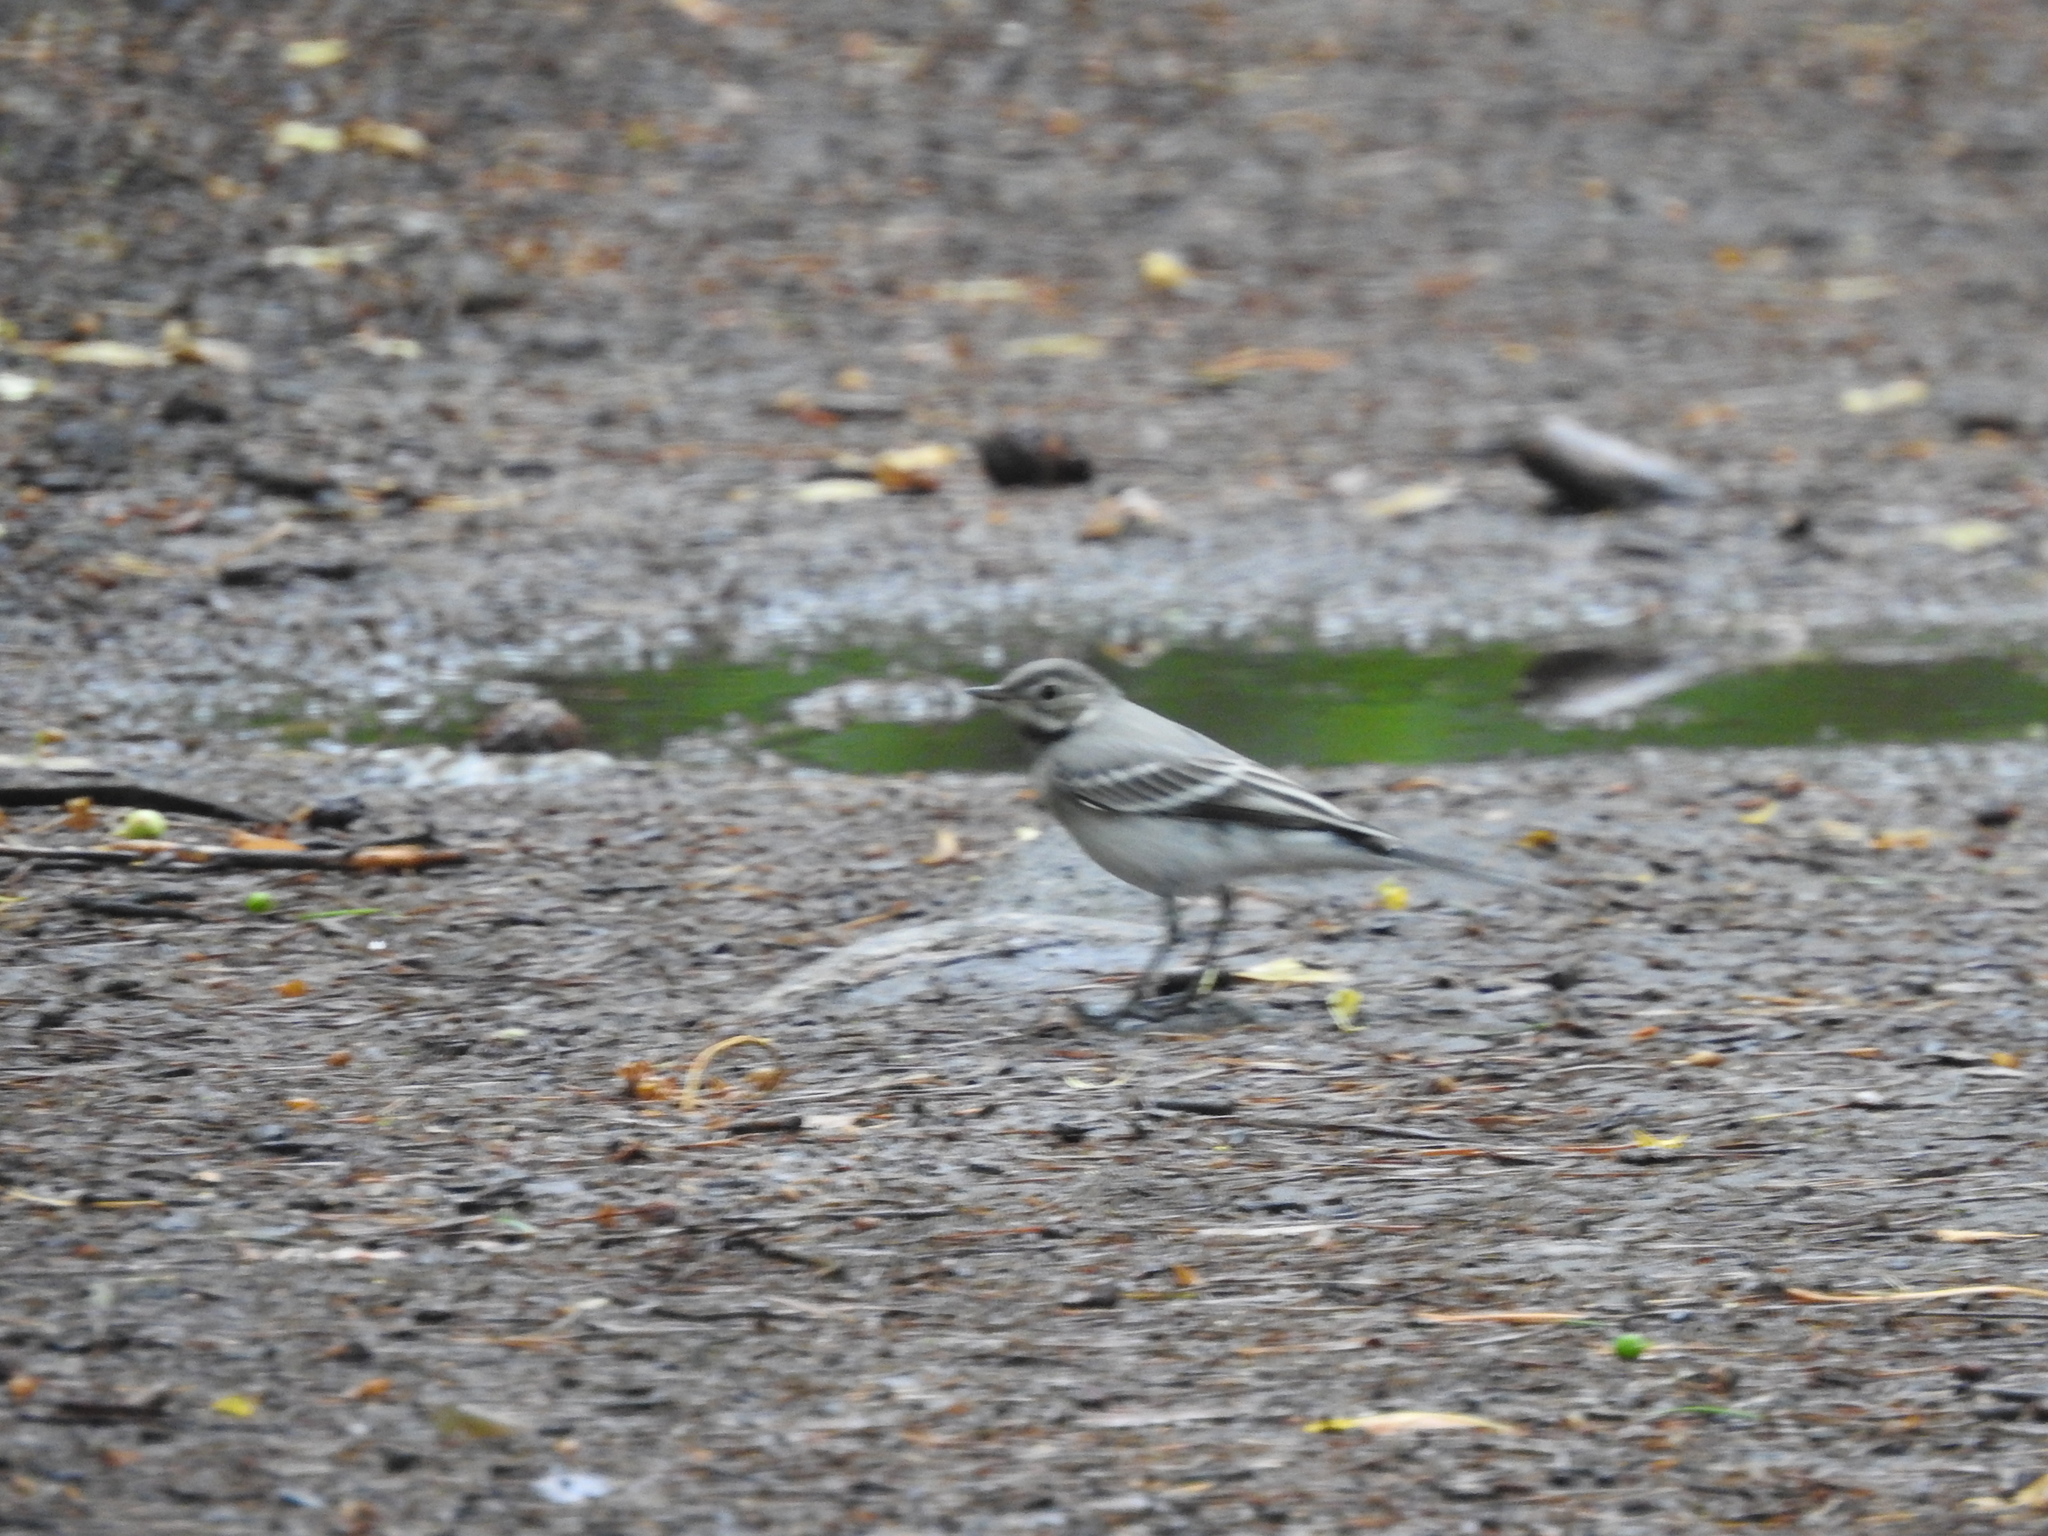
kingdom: Animalia
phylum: Chordata
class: Aves
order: Passeriformes
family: Motacillidae
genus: Motacilla
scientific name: Motacilla alba
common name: White wagtail
